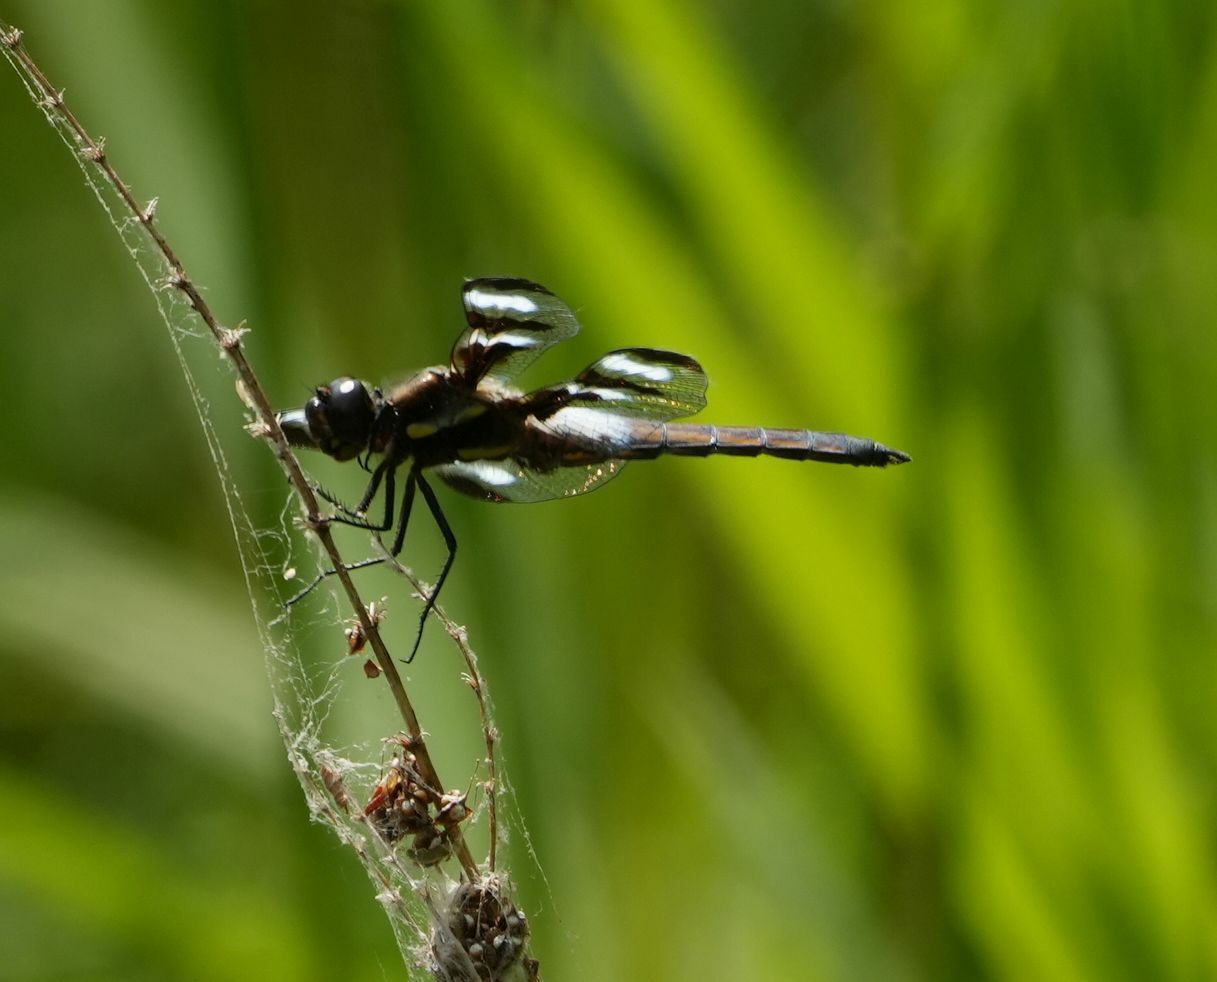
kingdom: Animalia
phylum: Arthropoda
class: Insecta
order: Odonata
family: Libellulidae
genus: Libellula
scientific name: Libellula pulchella
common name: Twelve-spotted skimmer
